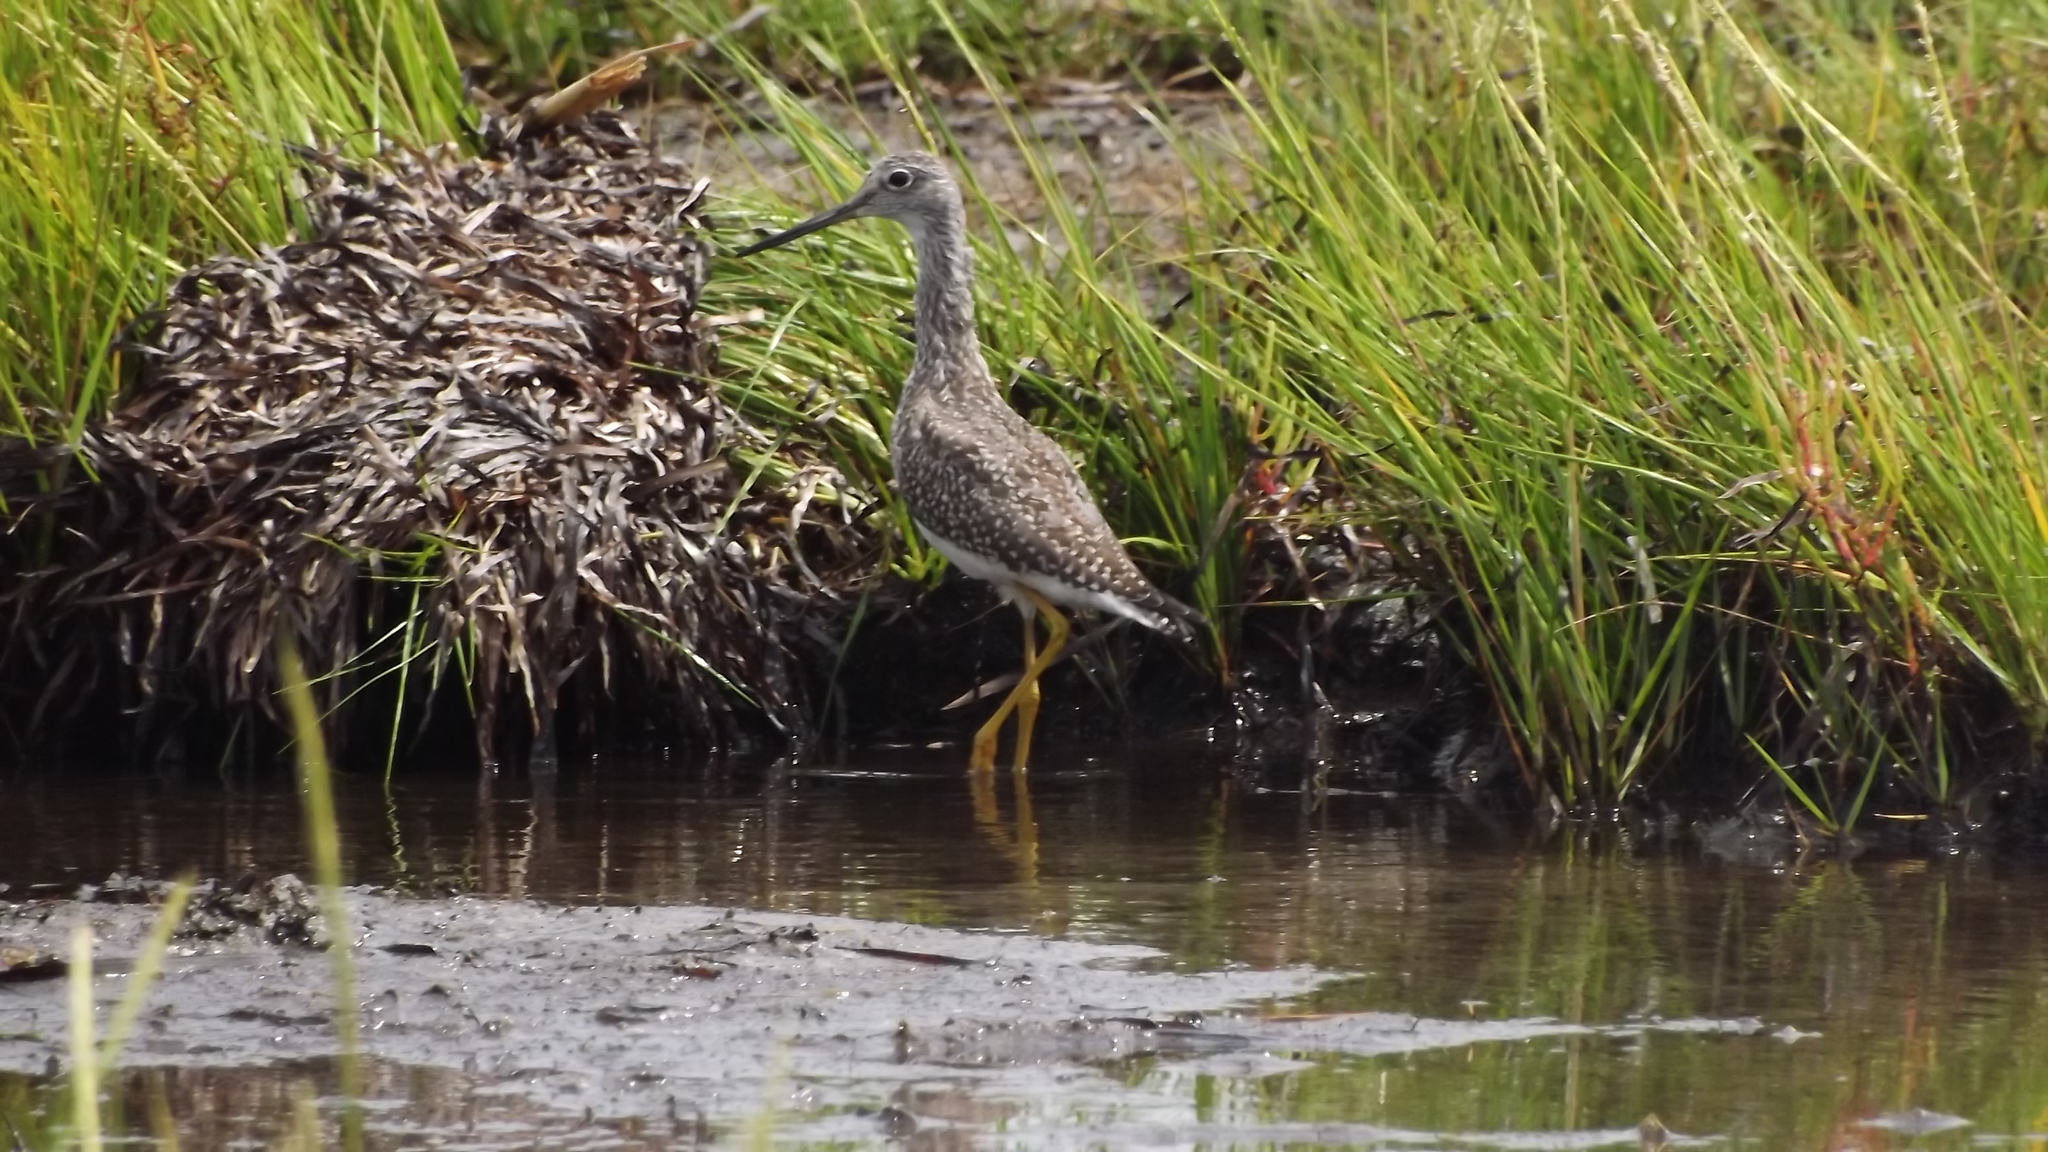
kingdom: Animalia
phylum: Chordata
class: Aves
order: Charadriiformes
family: Scolopacidae
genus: Tringa
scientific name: Tringa melanoleuca
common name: Greater yellowlegs
